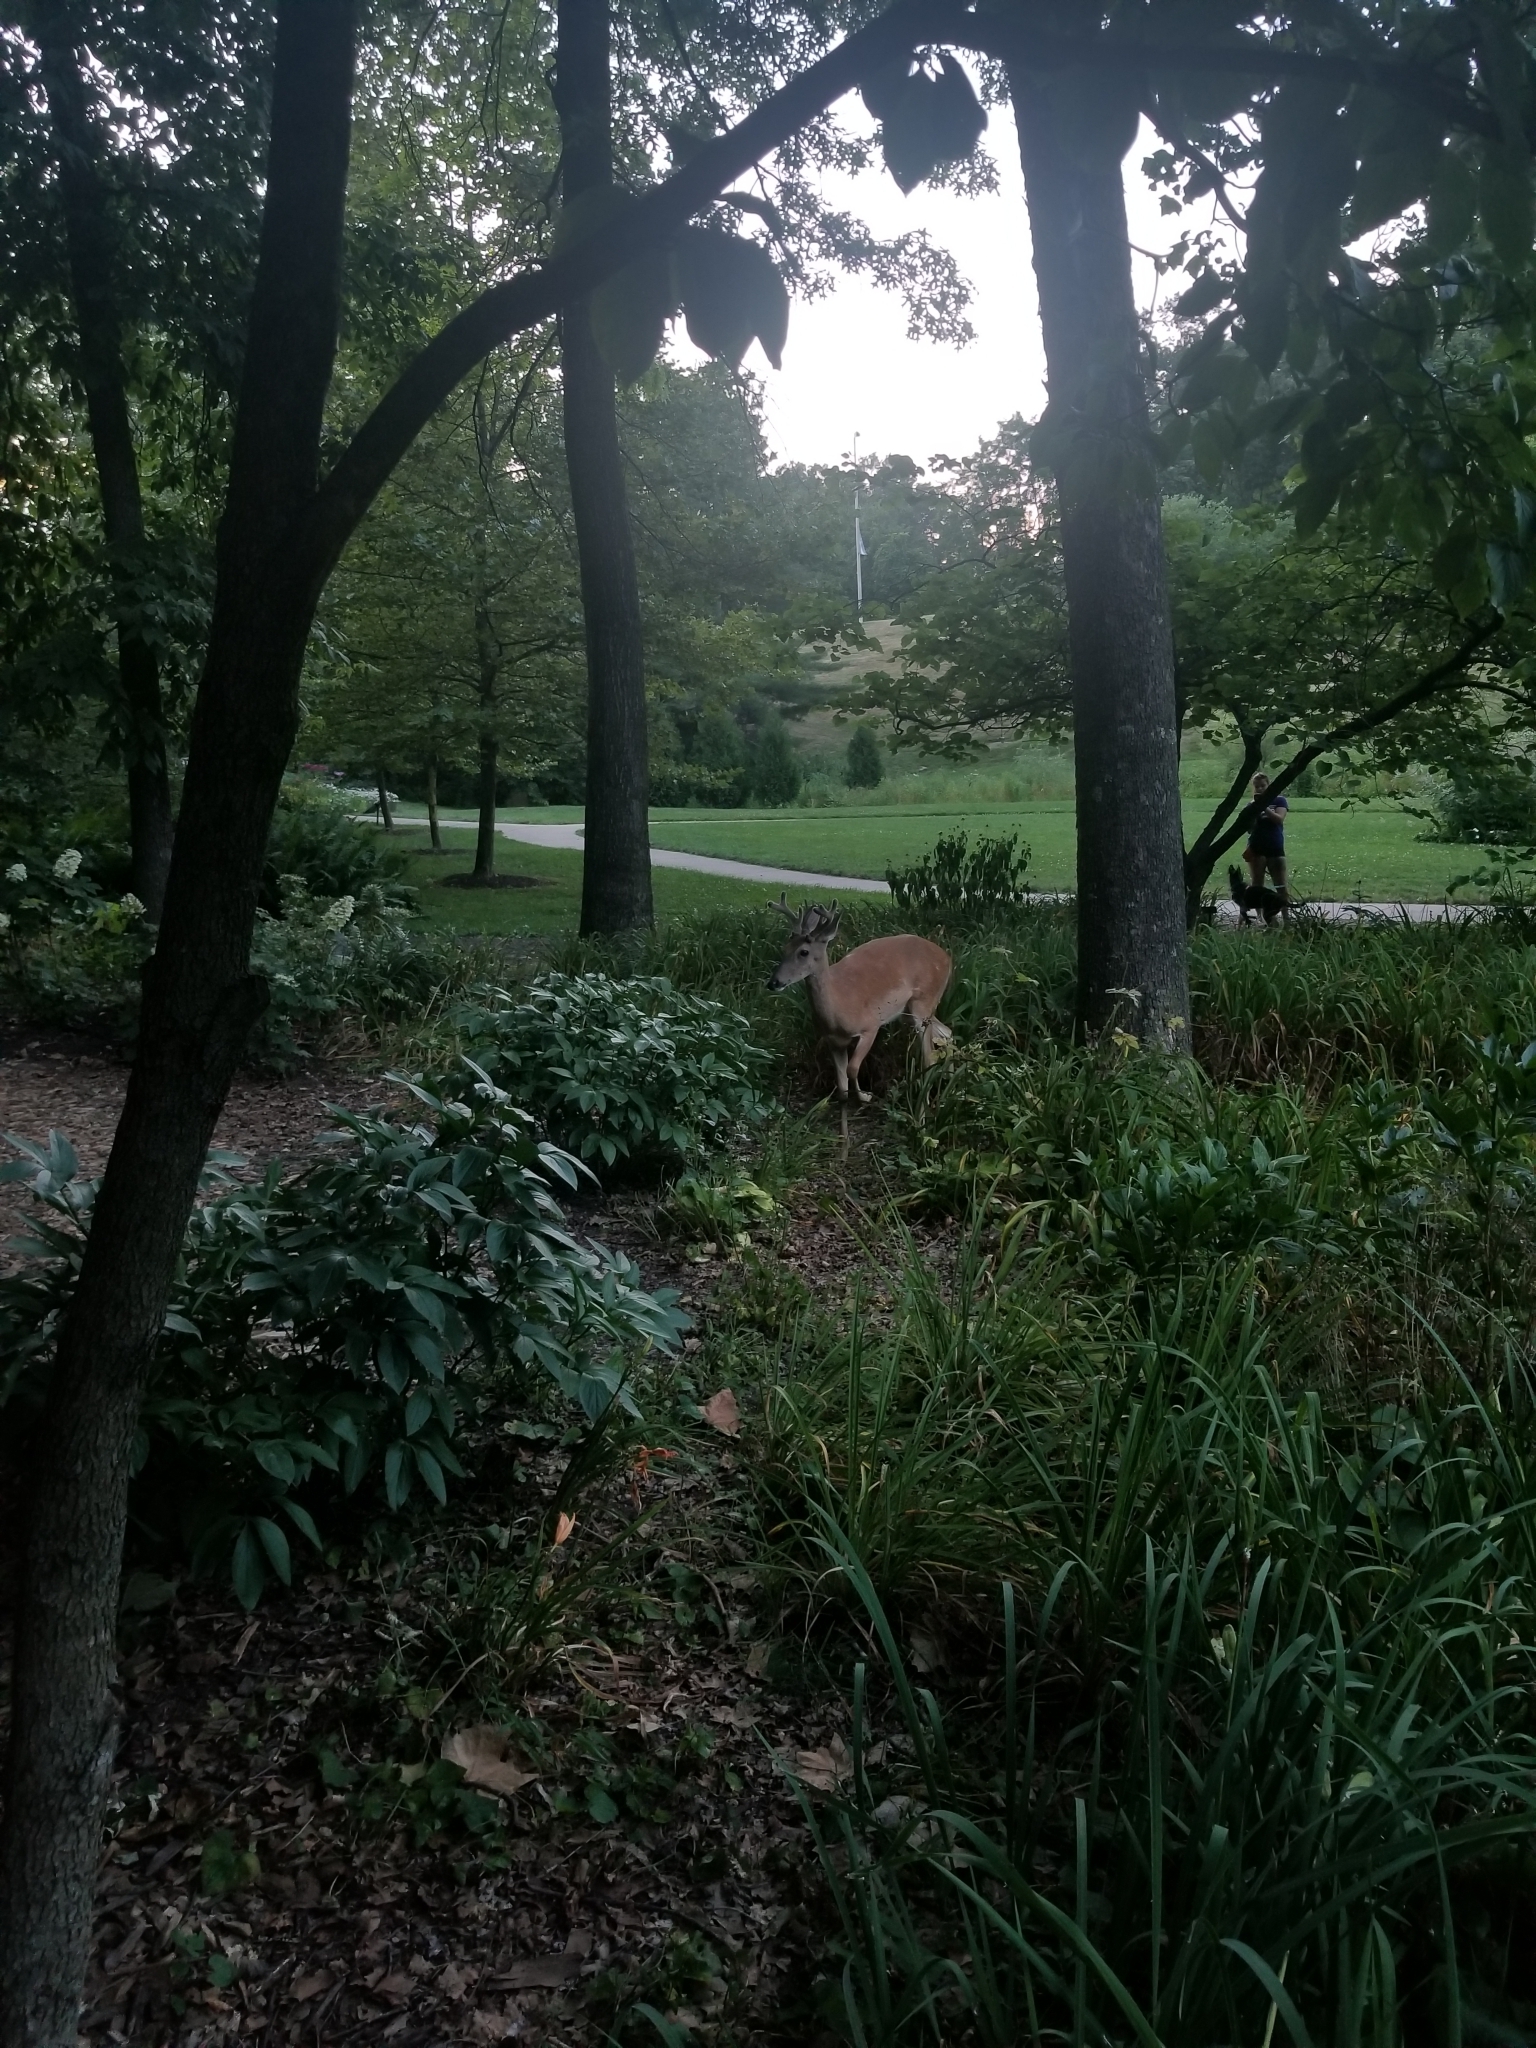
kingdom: Animalia
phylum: Chordata
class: Mammalia
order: Artiodactyla
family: Cervidae
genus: Odocoileus
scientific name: Odocoileus virginianus
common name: White-tailed deer
